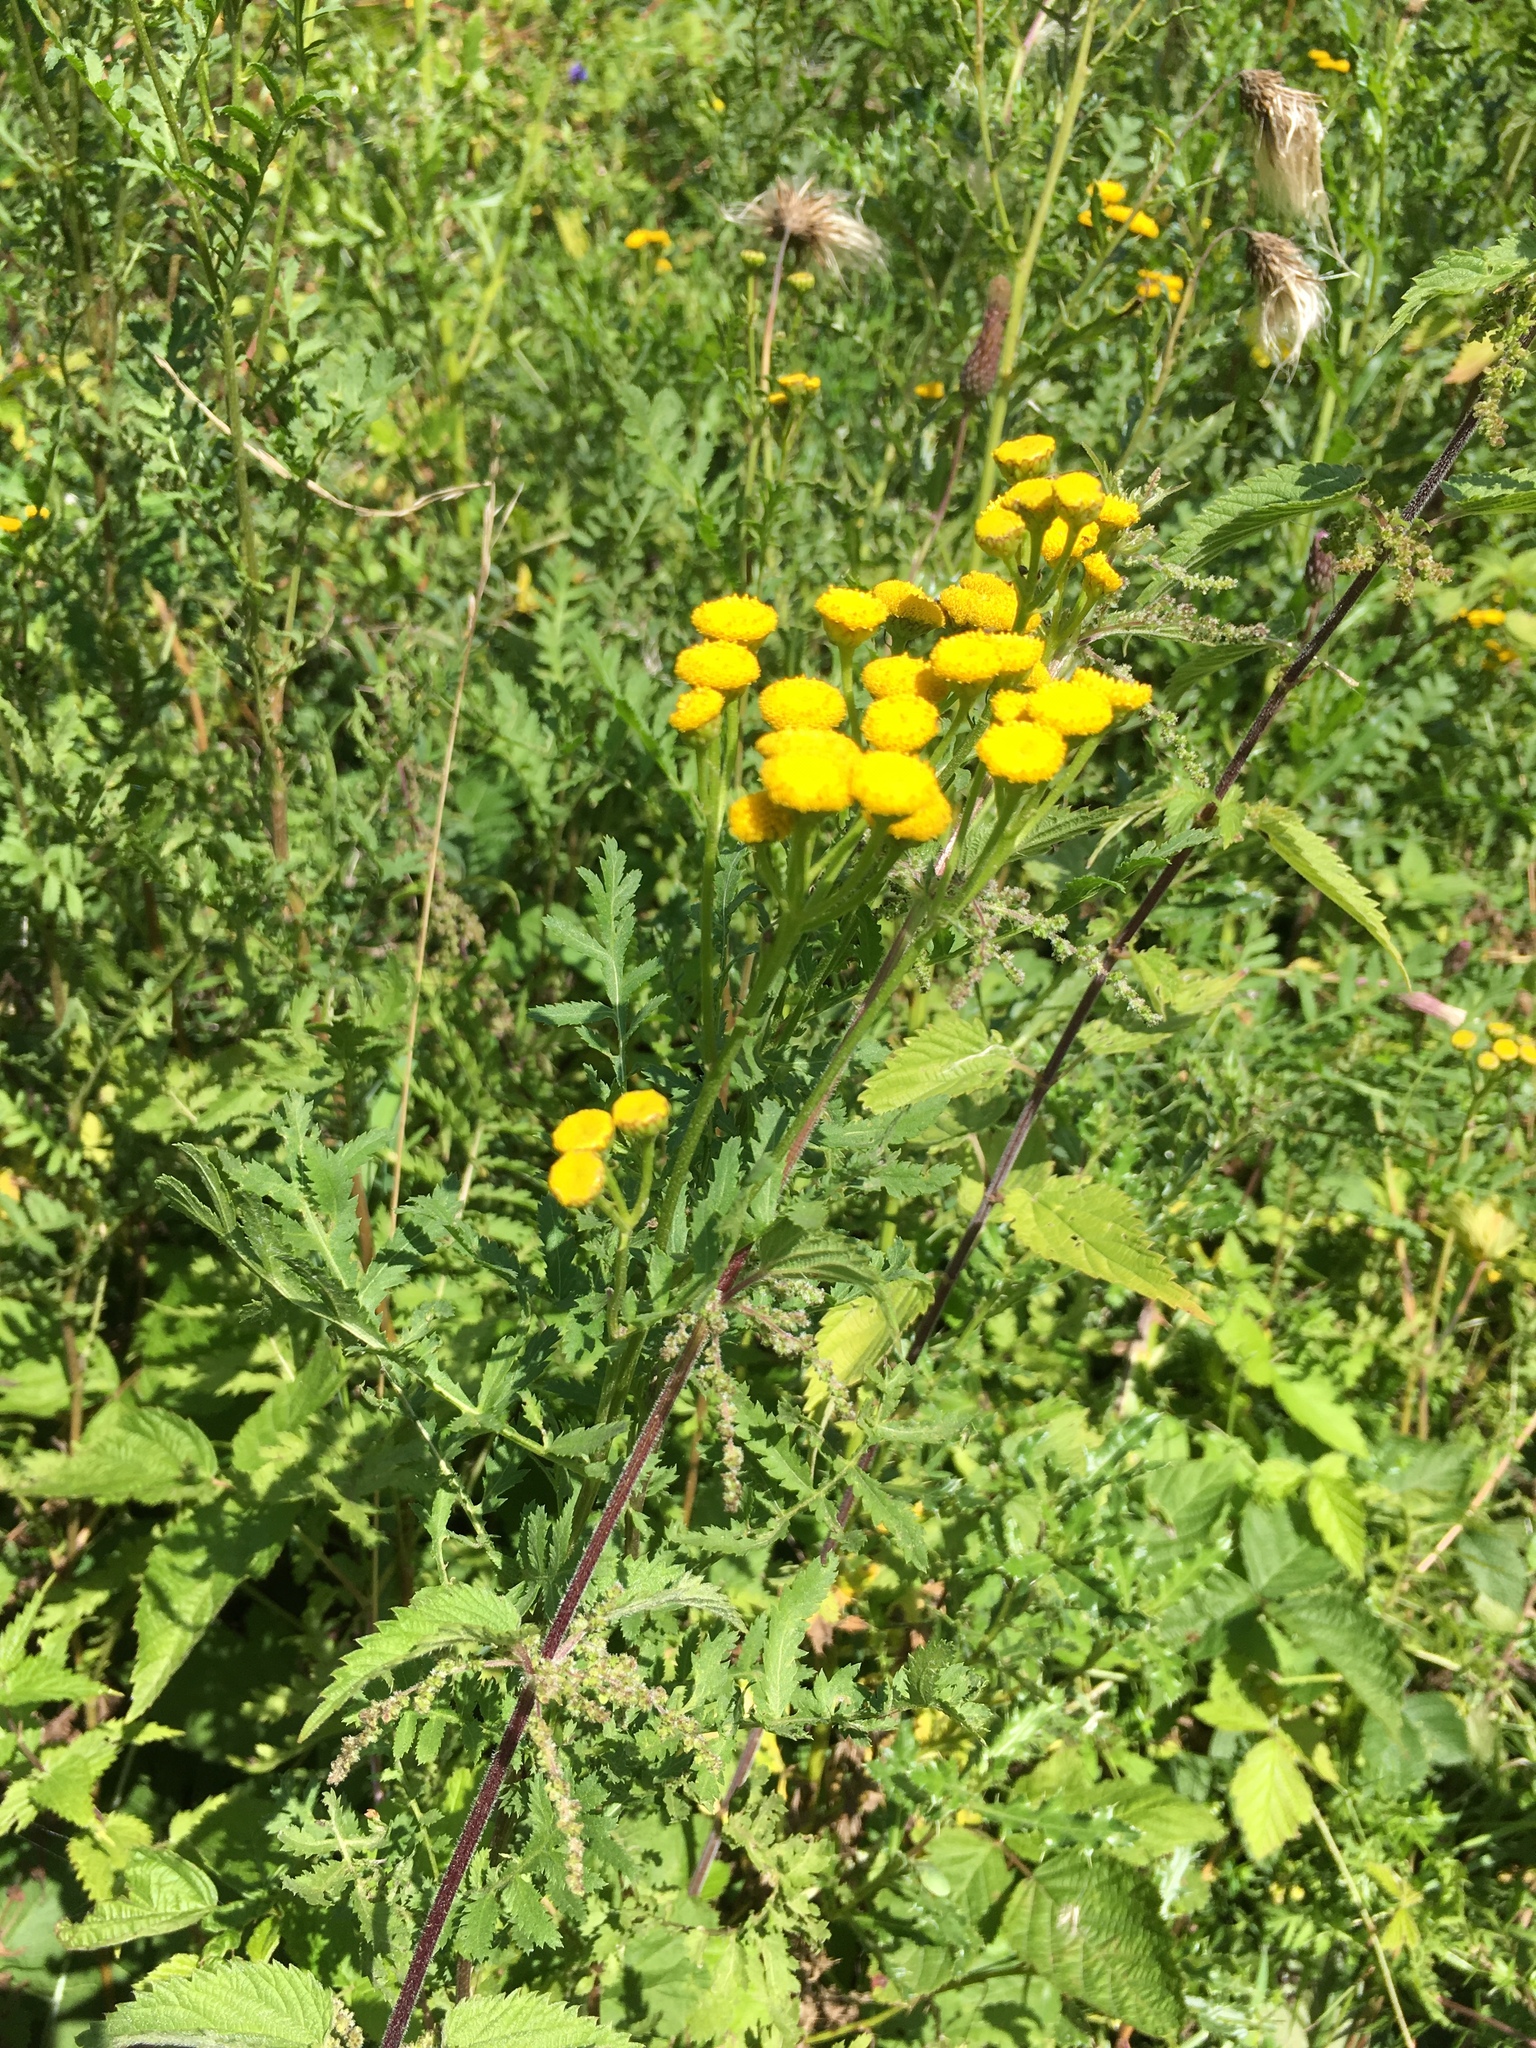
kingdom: Plantae
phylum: Tracheophyta
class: Magnoliopsida
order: Asterales
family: Asteraceae
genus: Tanacetum
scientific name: Tanacetum vulgare
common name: Common tansy
